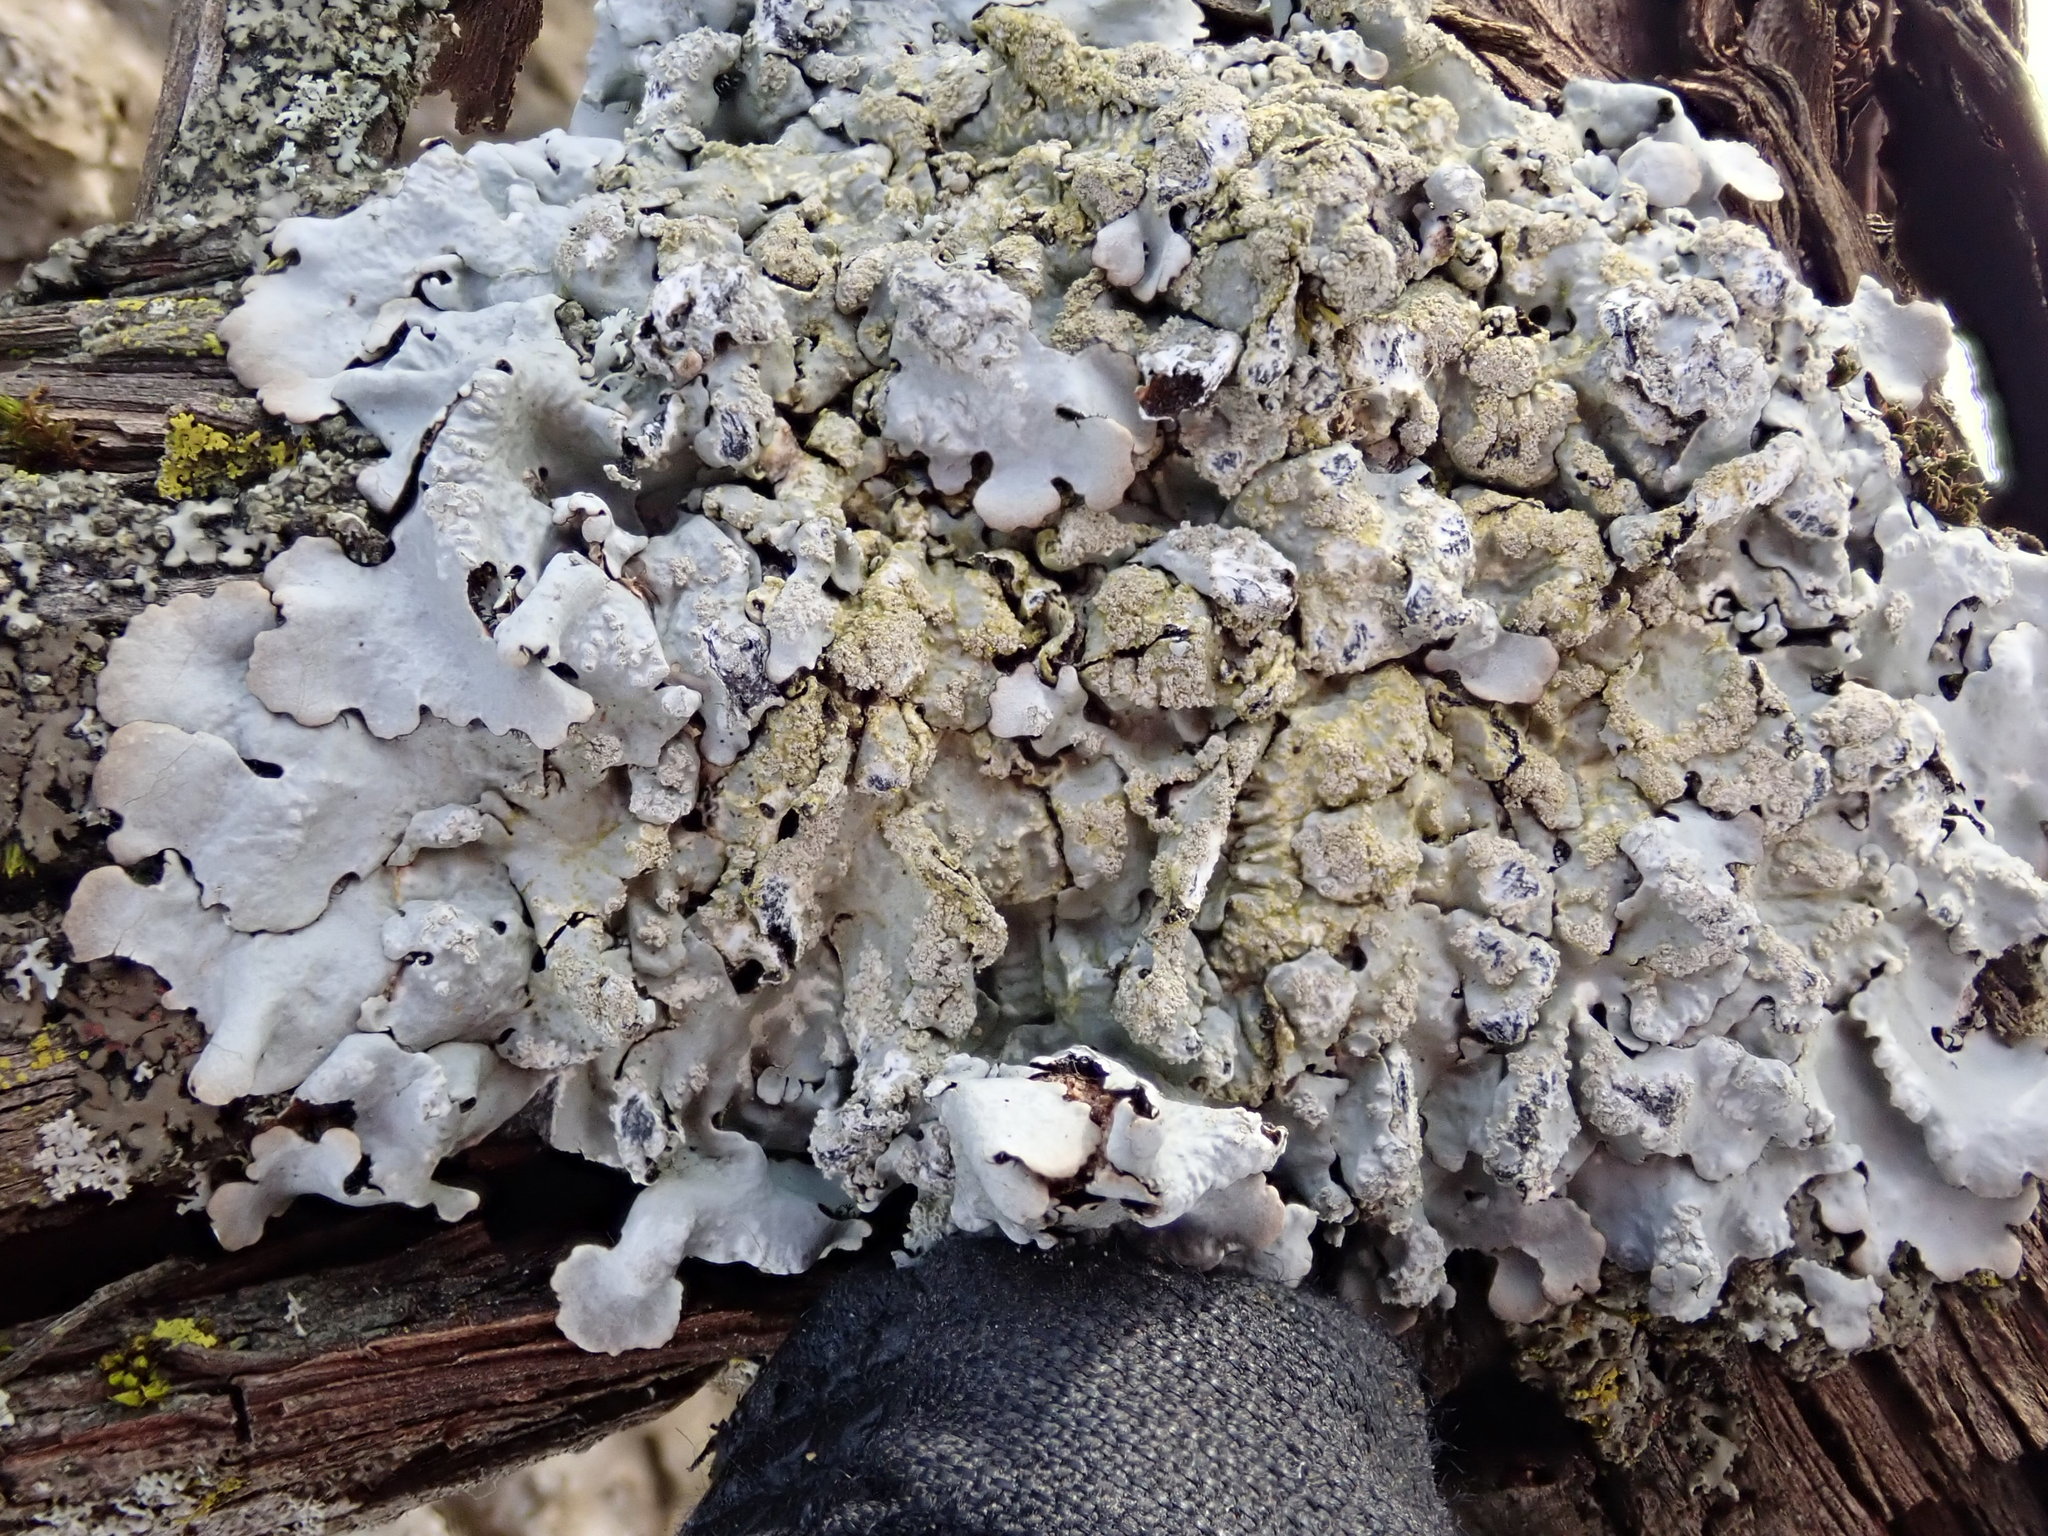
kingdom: Fungi
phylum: Ascomycota
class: Lecanoromycetes
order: Lecanorales
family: Parmeliaceae
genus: Myelochroa
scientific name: Myelochroa aurulenta
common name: Powdery axil-bristle lichen
